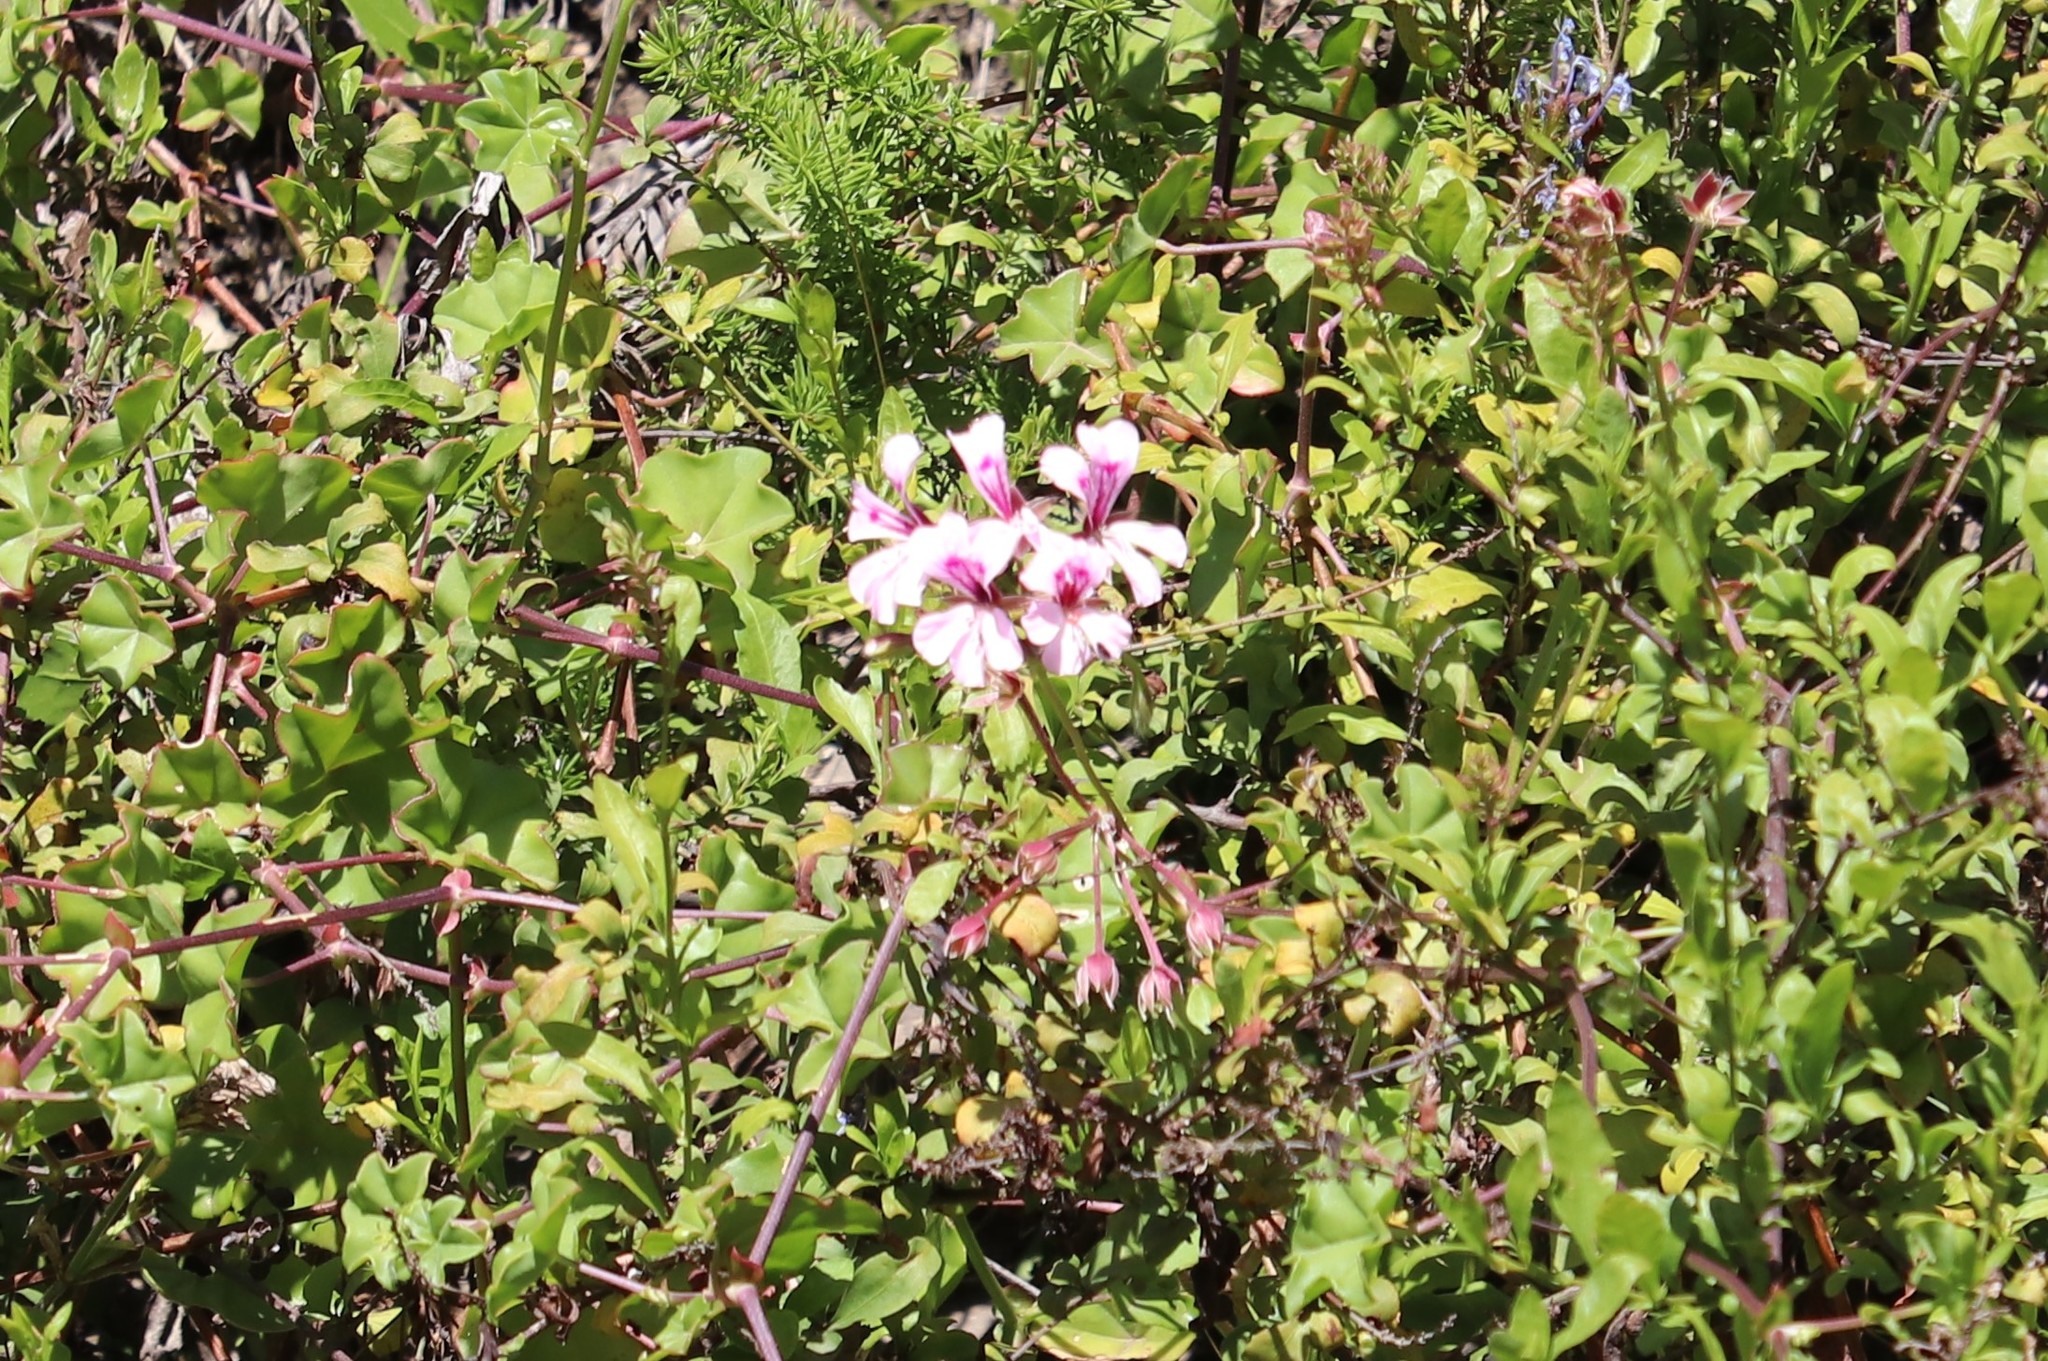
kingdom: Plantae
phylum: Tracheophyta
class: Magnoliopsida
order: Geraniales
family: Geraniaceae
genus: Pelargonium
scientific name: Pelargonium peltatum
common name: Ivyleaf geranium
